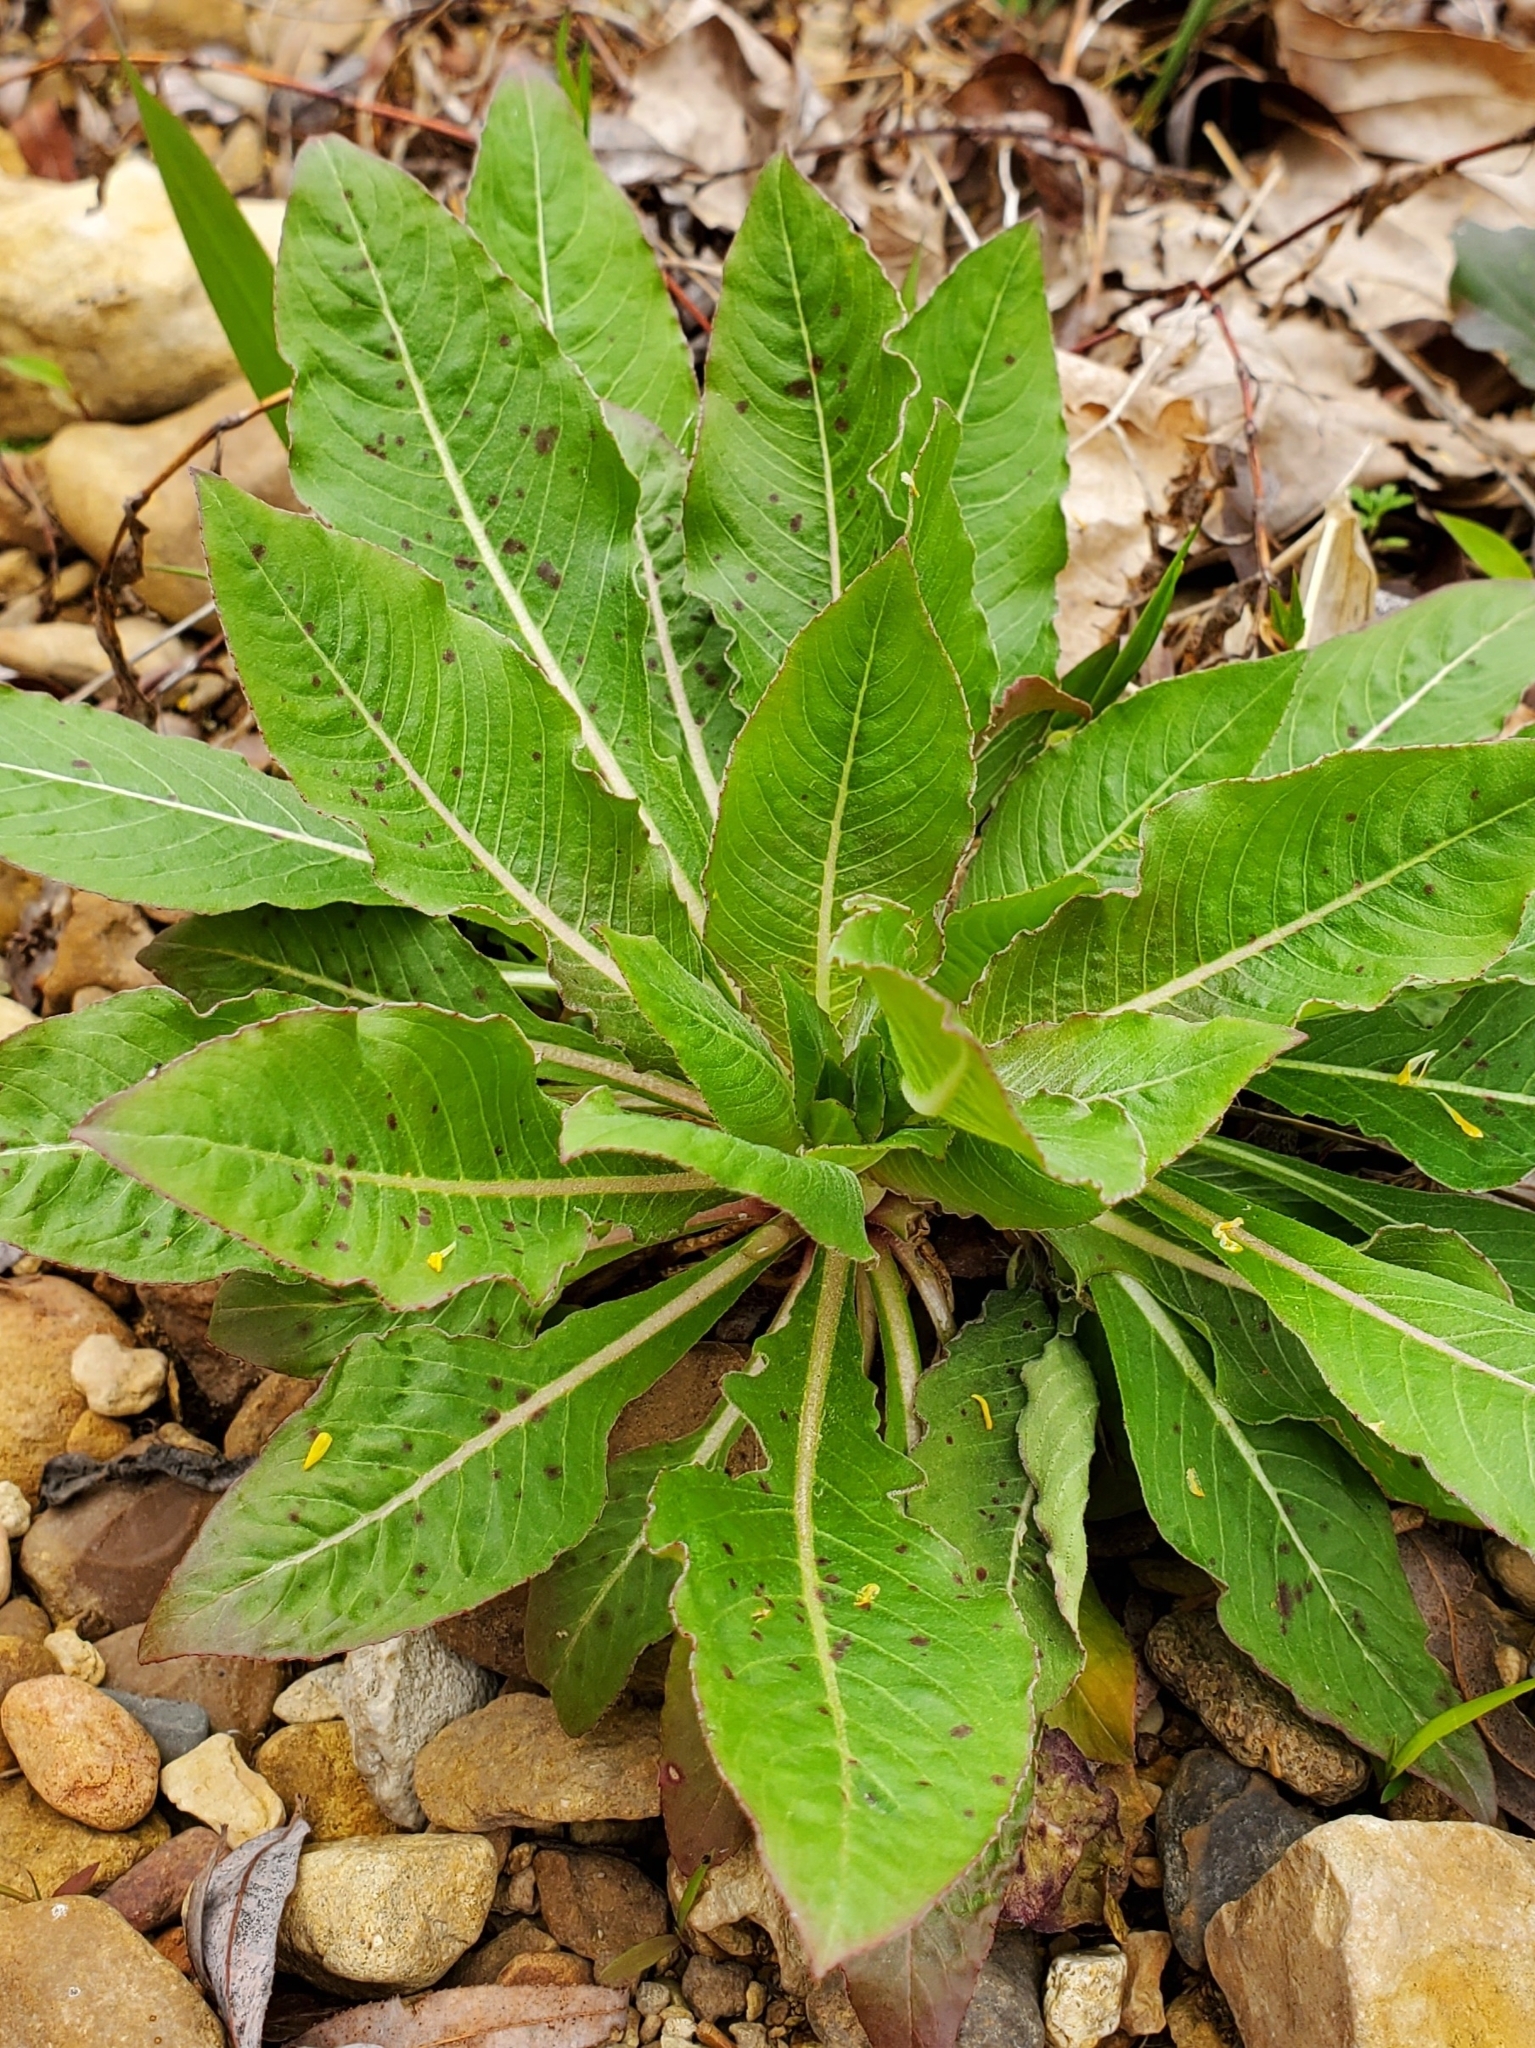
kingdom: Plantae
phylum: Tracheophyta
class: Magnoliopsida
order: Myrtales
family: Onagraceae
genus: Oenothera
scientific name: Oenothera biennis
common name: Common evening-primrose
